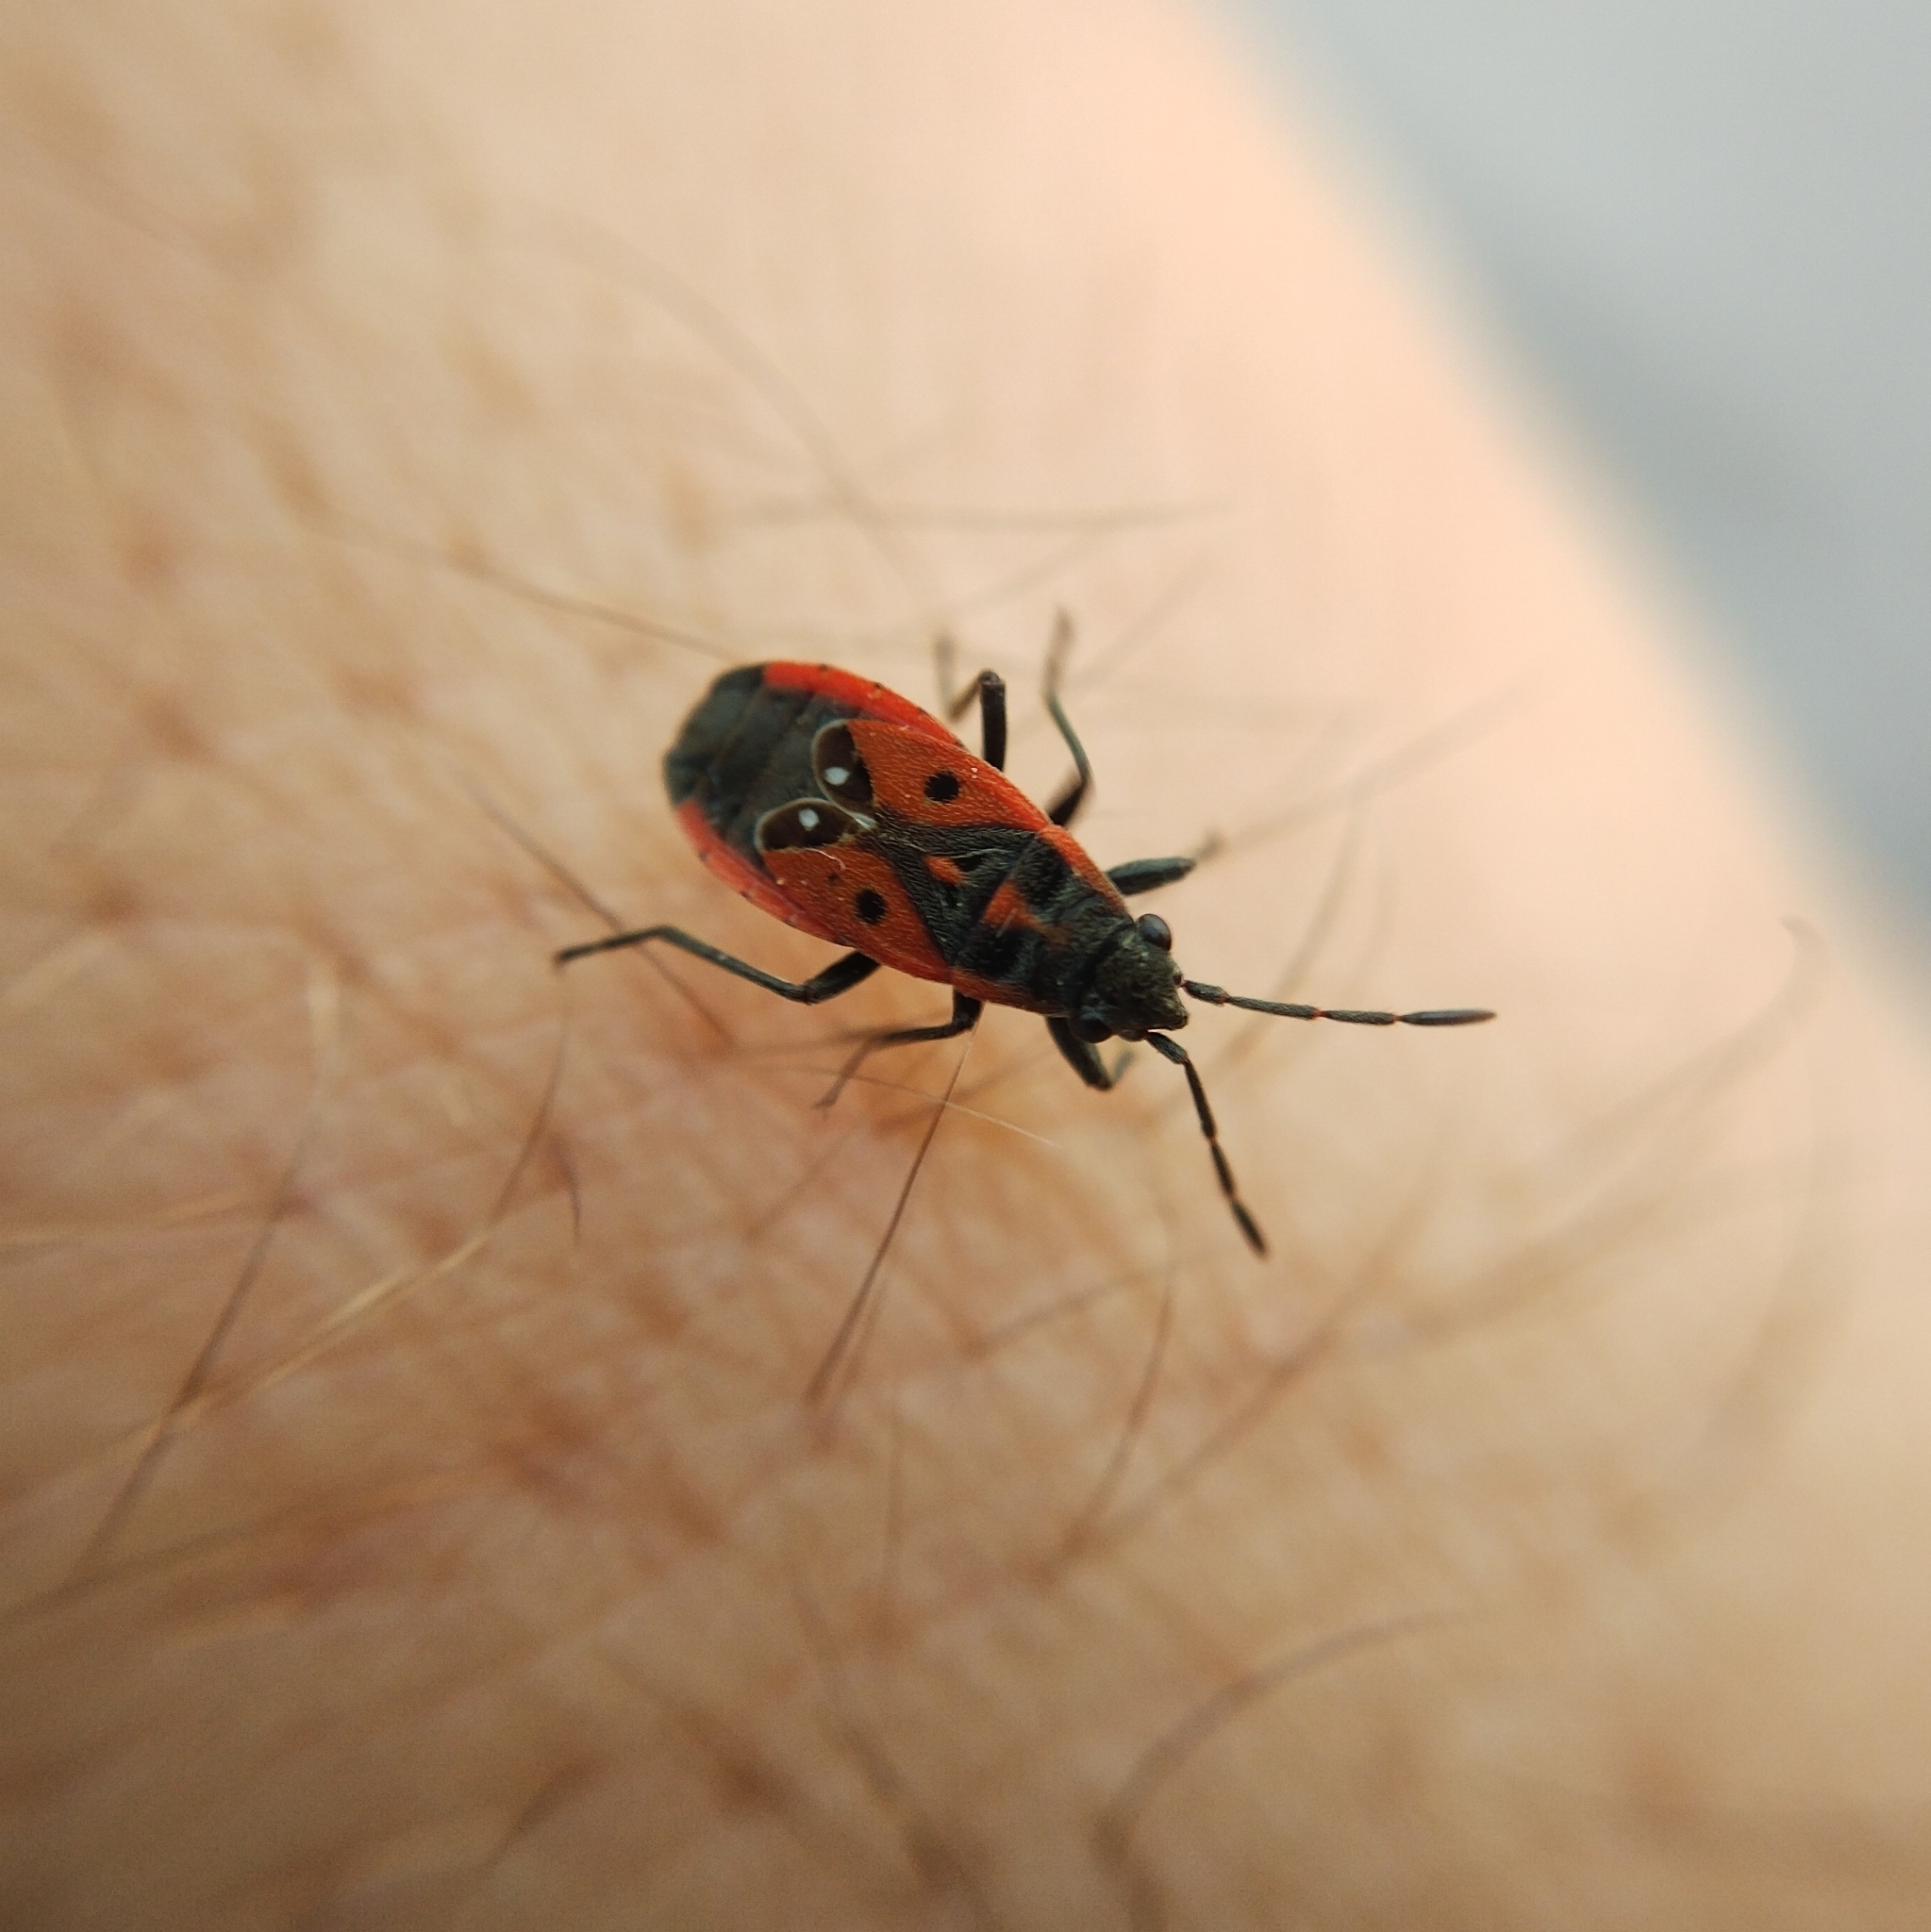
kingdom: Animalia
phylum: Arthropoda
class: Insecta
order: Hemiptera
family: Lygaeidae
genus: Melanocoryphus
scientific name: Melanocoryphus tristrami
